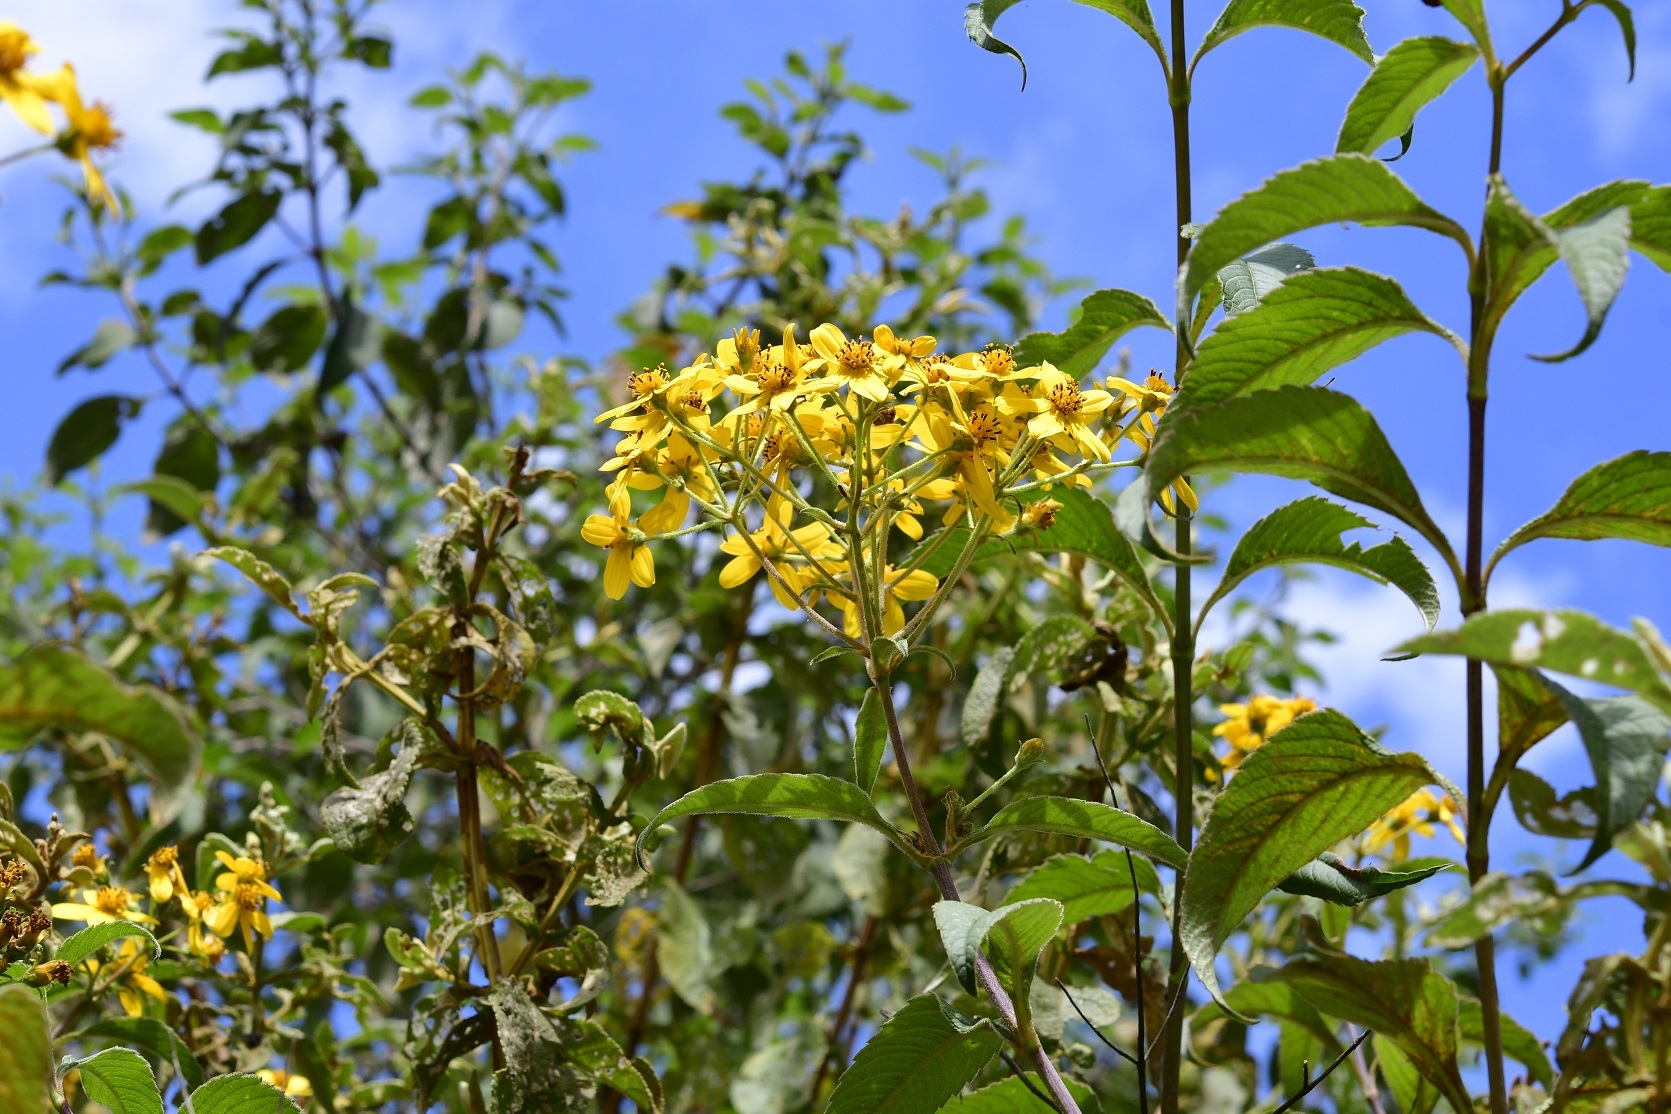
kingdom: Plantae
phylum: Tracheophyta
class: Magnoliopsida
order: Asterales
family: Asteraceae
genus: Electranthera
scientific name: Electranthera mutica
